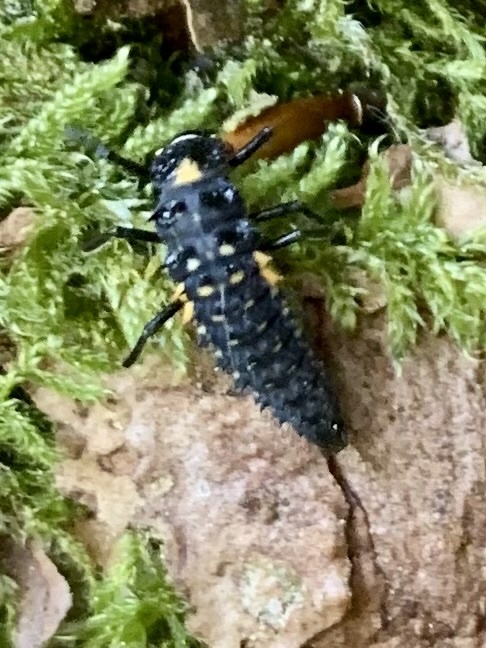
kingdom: Animalia
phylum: Arthropoda
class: Insecta
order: Coleoptera
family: Coccinellidae
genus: Anatis
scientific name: Anatis ocellata
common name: Eyed ladybird
